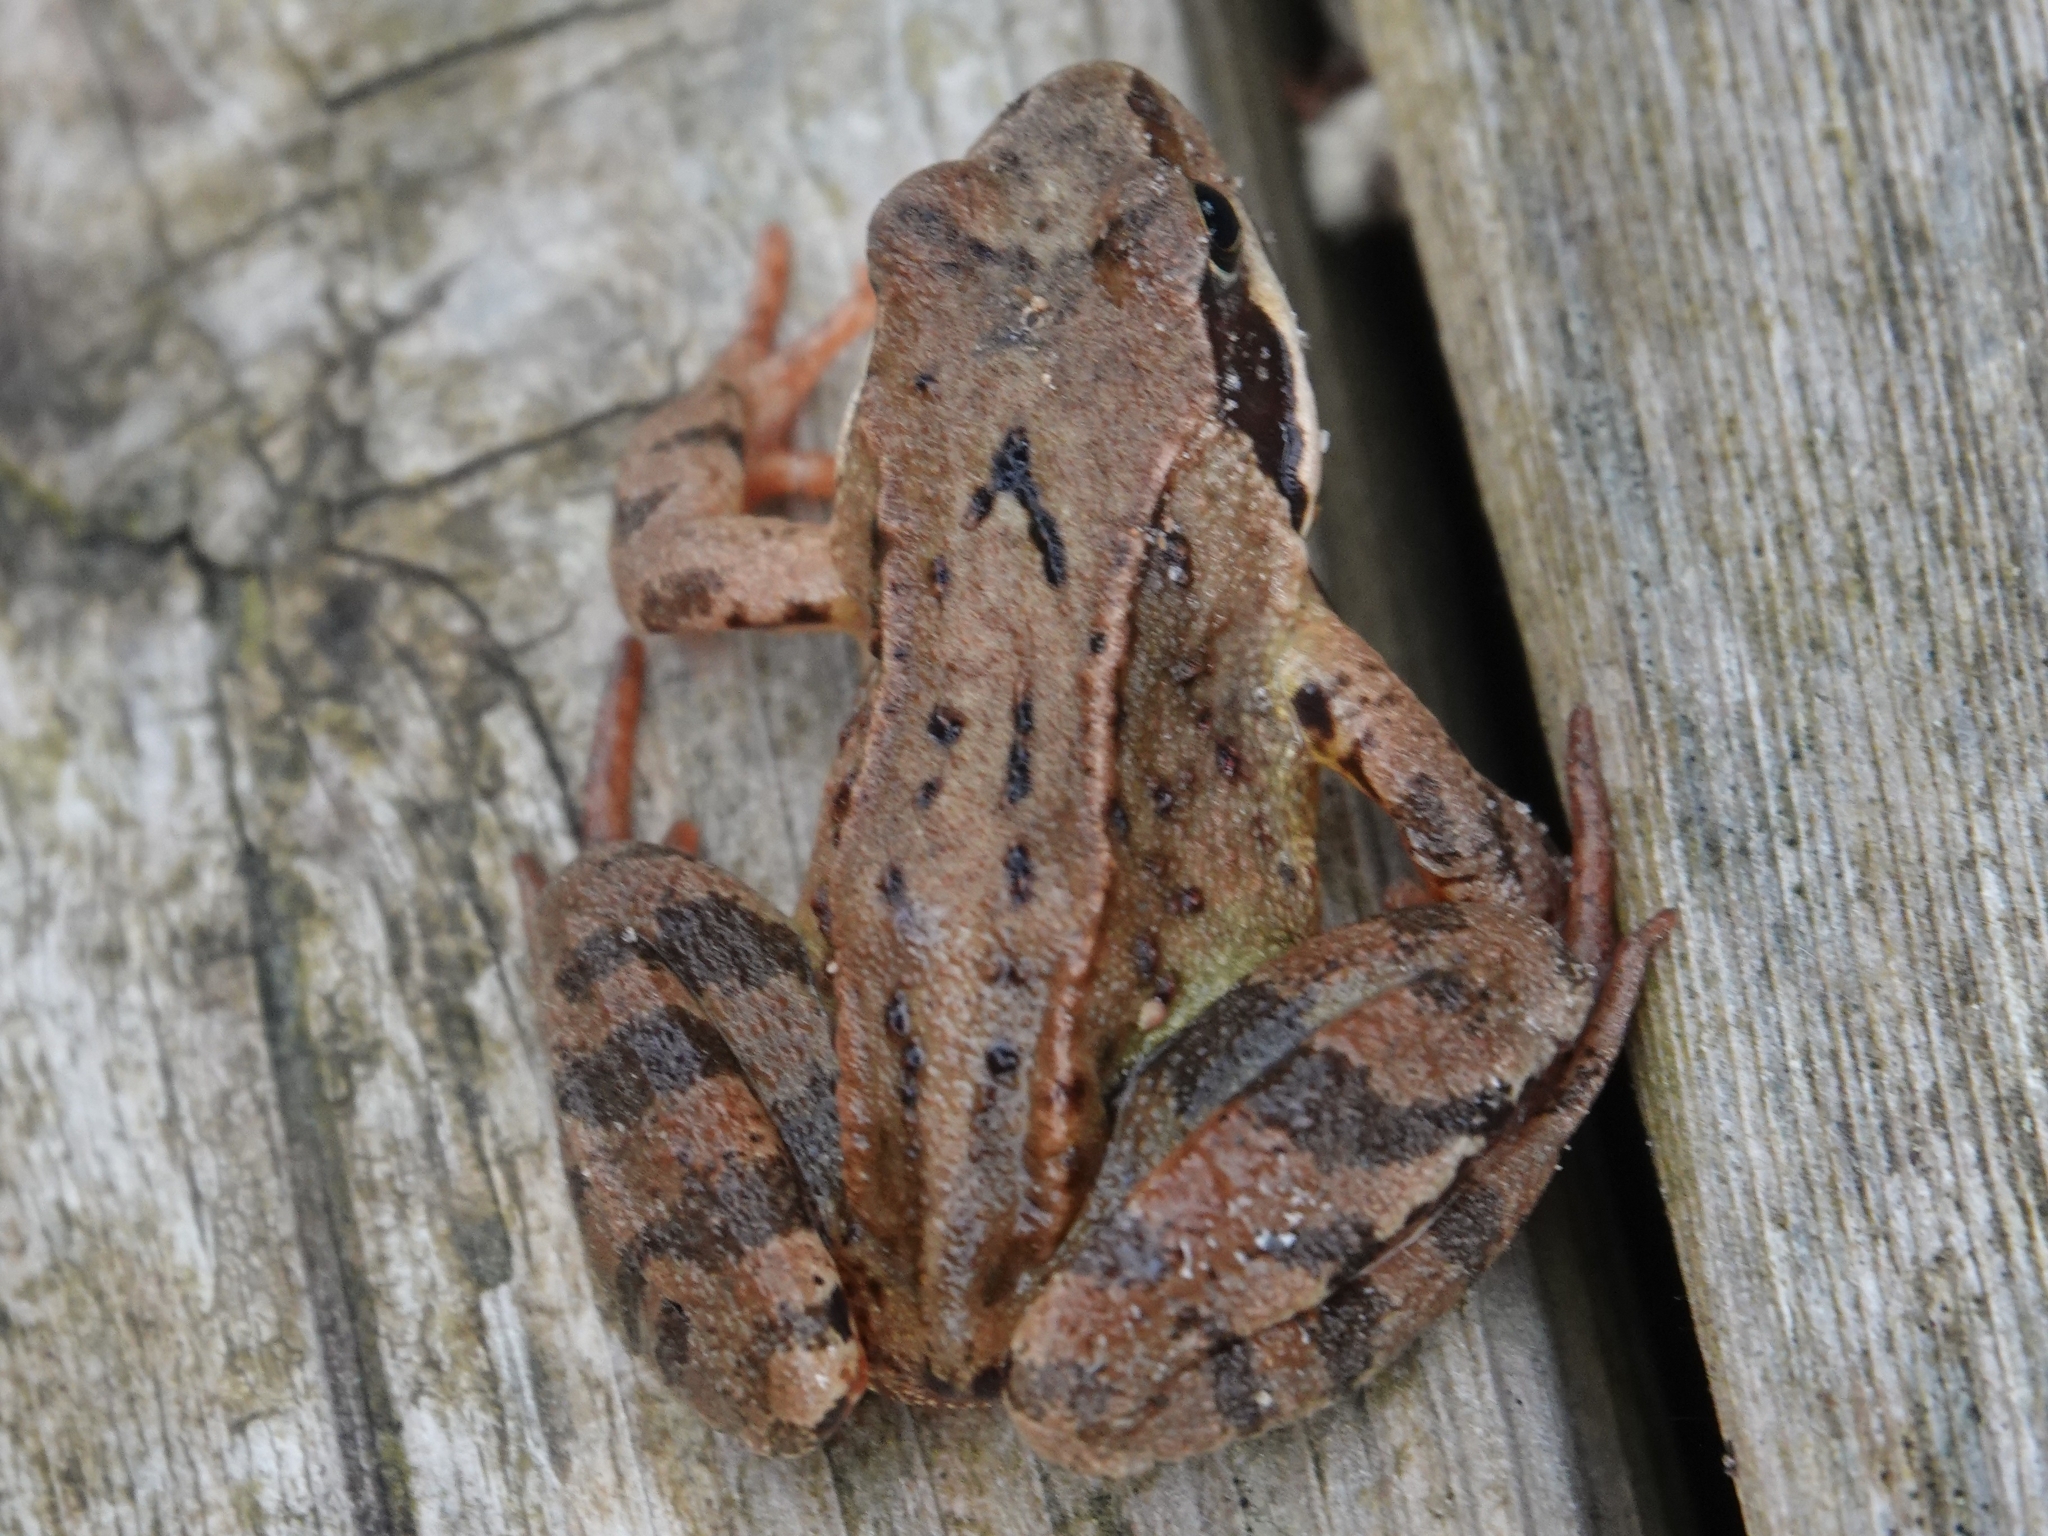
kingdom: Animalia
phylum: Chordata
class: Amphibia
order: Anura
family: Ranidae
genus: Rana
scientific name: Rana temporaria
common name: Common frog
